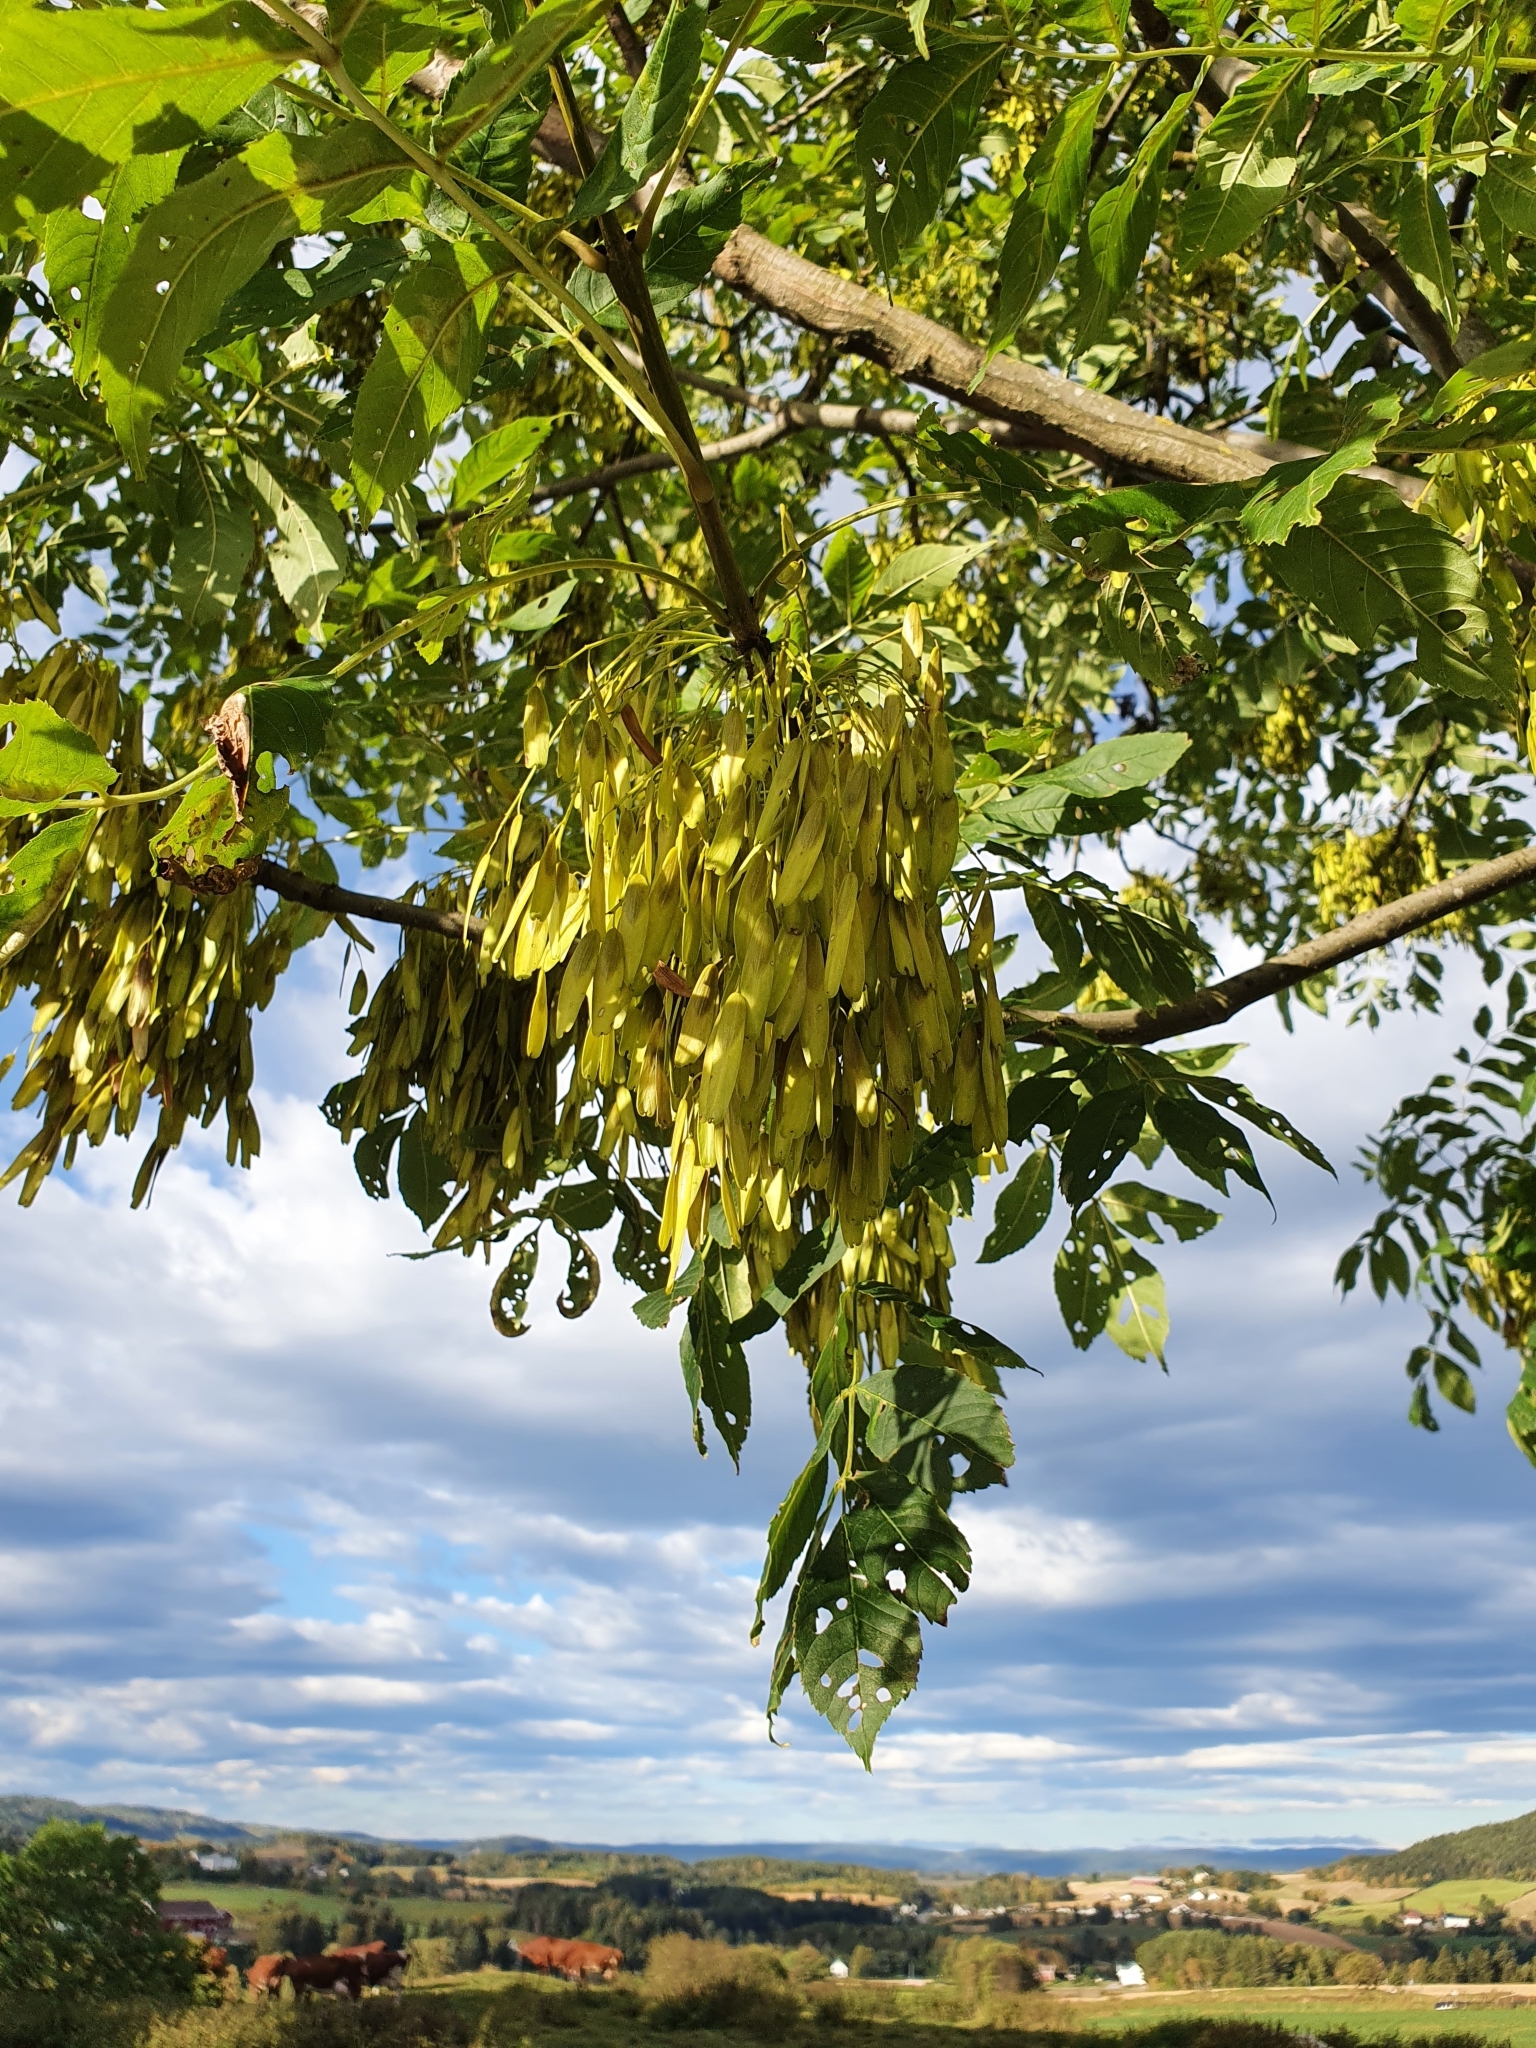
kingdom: Plantae
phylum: Tracheophyta
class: Magnoliopsida
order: Lamiales
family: Oleaceae
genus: Fraxinus
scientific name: Fraxinus excelsior
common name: European ash
